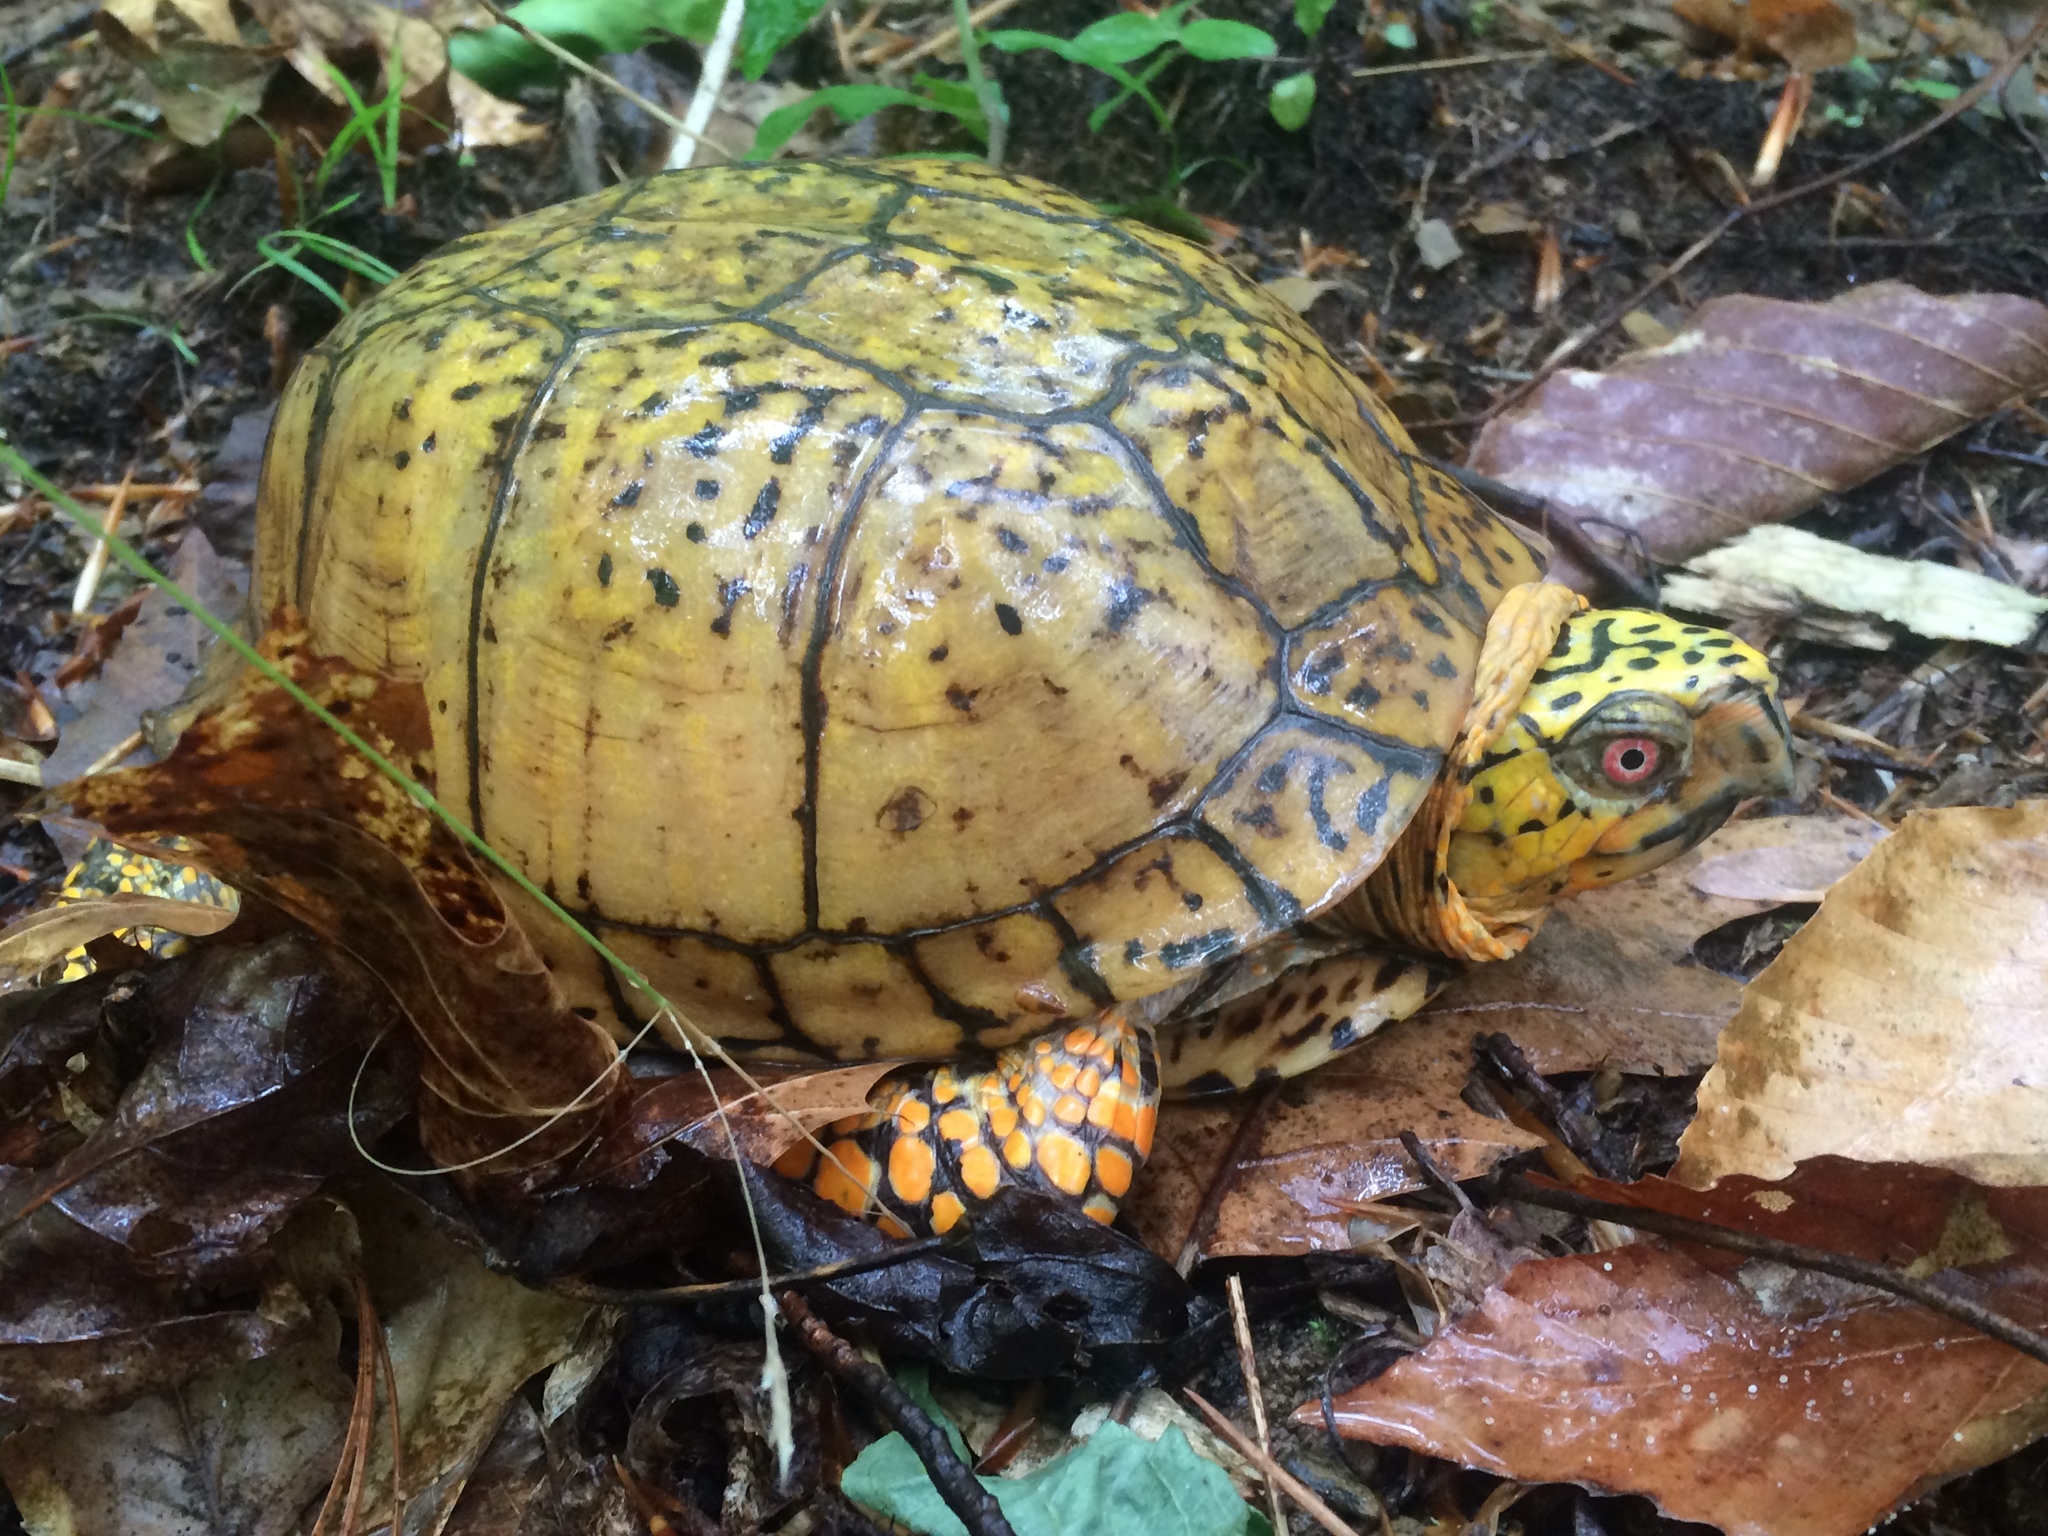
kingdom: Animalia
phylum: Chordata
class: Testudines
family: Emydidae
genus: Terrapene
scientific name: Terrapene carolina
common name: Common box turtle
